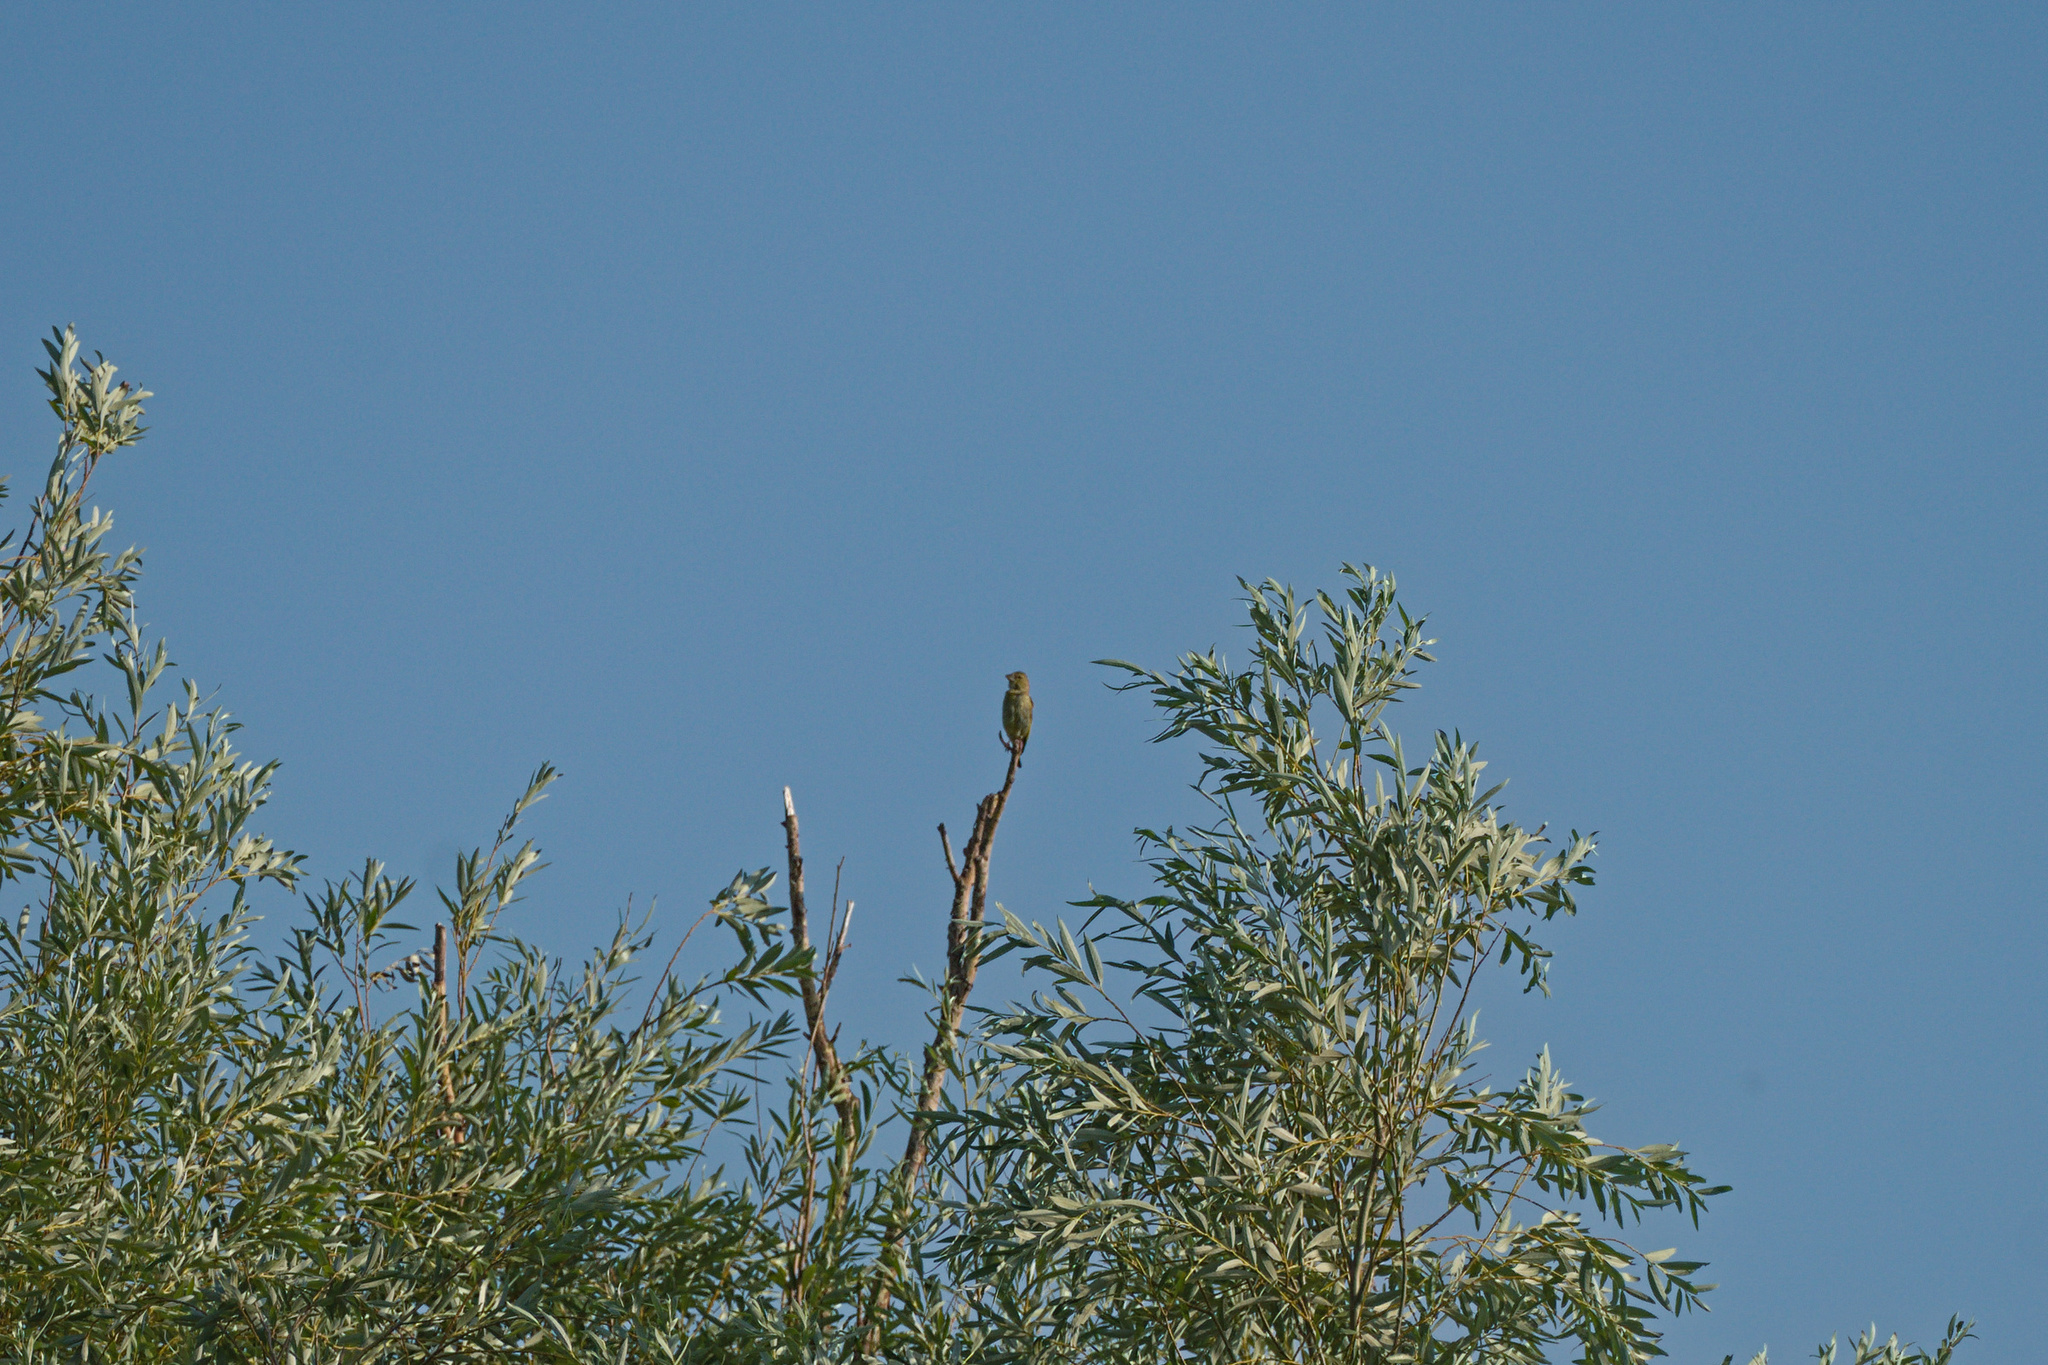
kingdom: Plantae
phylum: Tracheophyta
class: Liliopsida
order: Poales
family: Poaceae
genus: Chloris
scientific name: Chloris chloris
